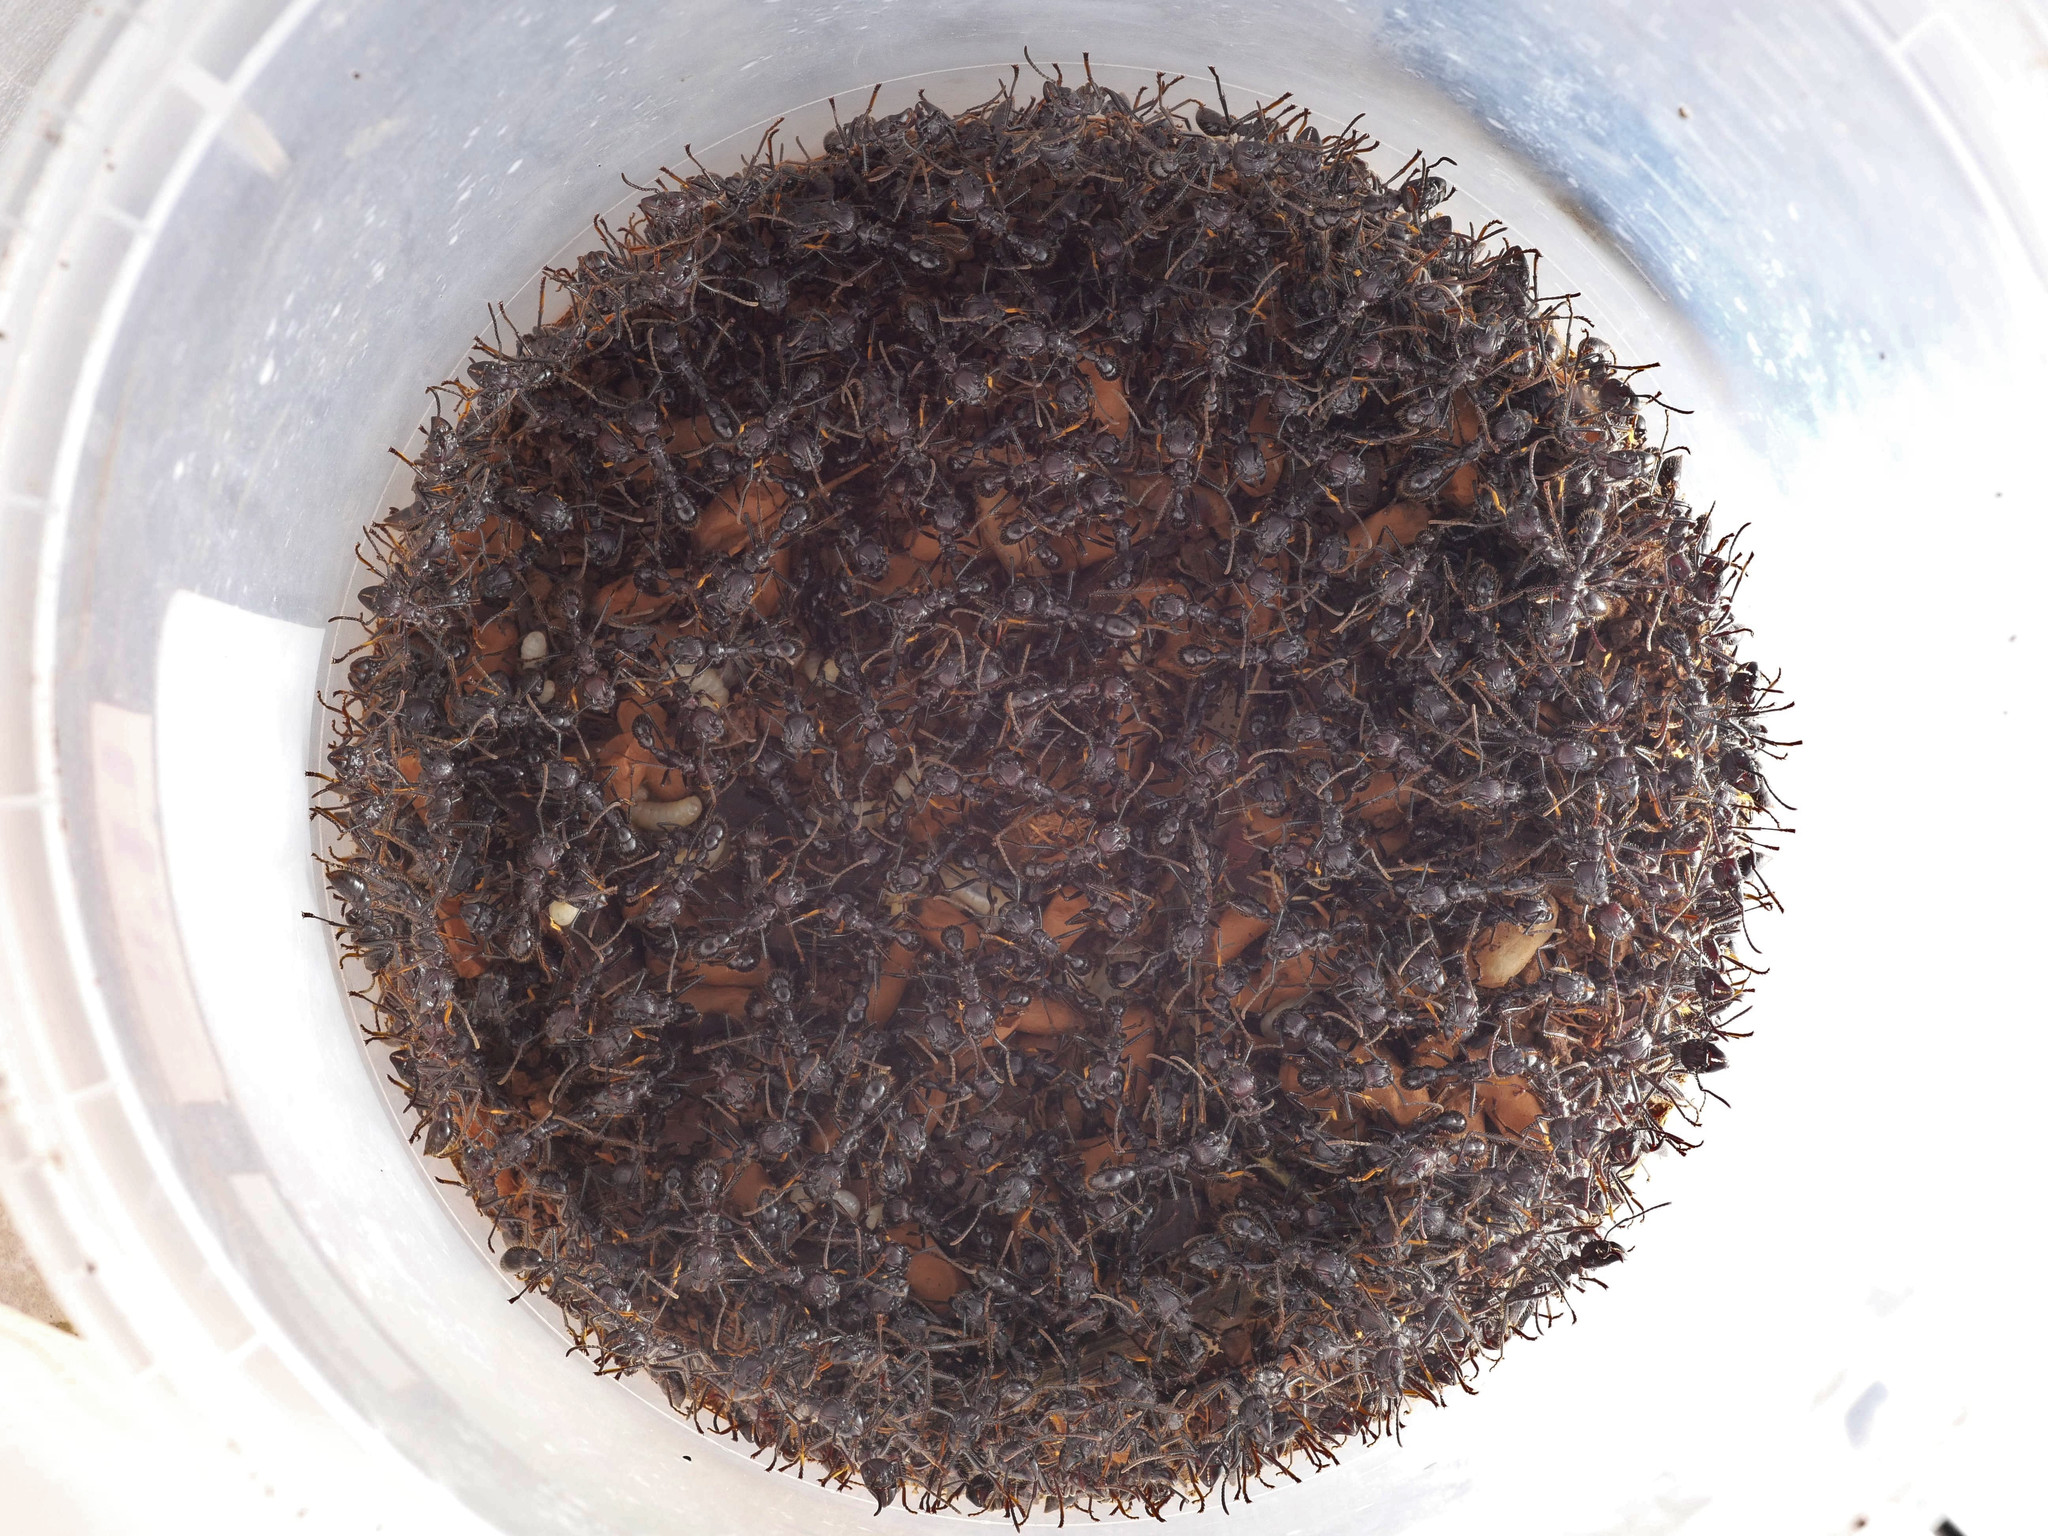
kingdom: Animalia
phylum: Arthropoda
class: Insecta
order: Hymenoptera
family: Formicidae
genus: Paraponera
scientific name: Paraponera clavata
